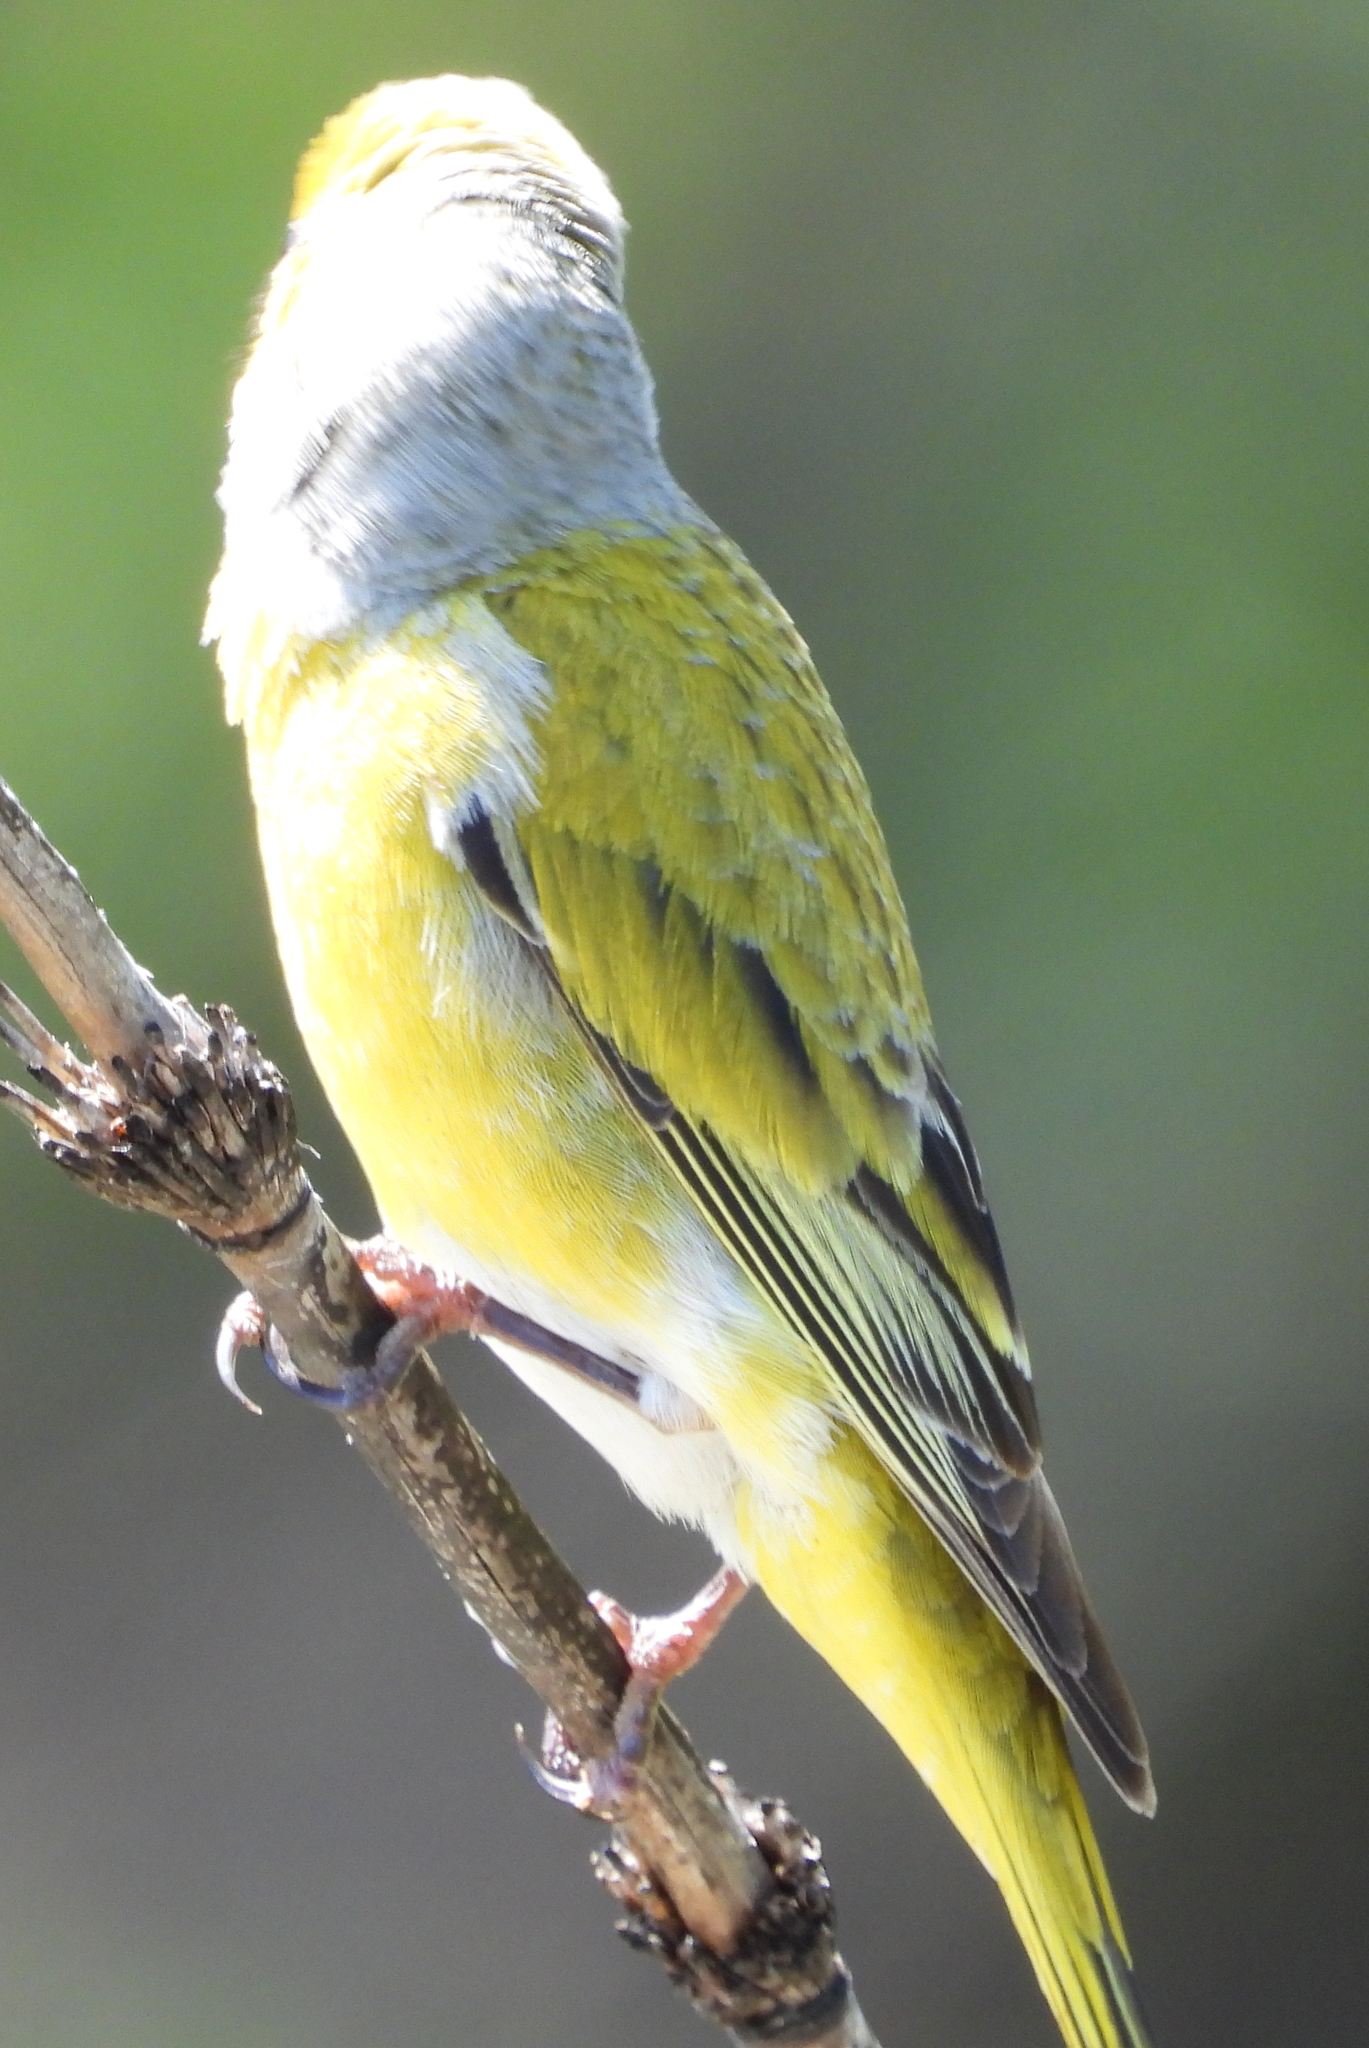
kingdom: Animalia
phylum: Chordata
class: Aves
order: Passeriformes
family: Fringillidae
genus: Serinus
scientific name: Serinus canicollis
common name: Cape canary
